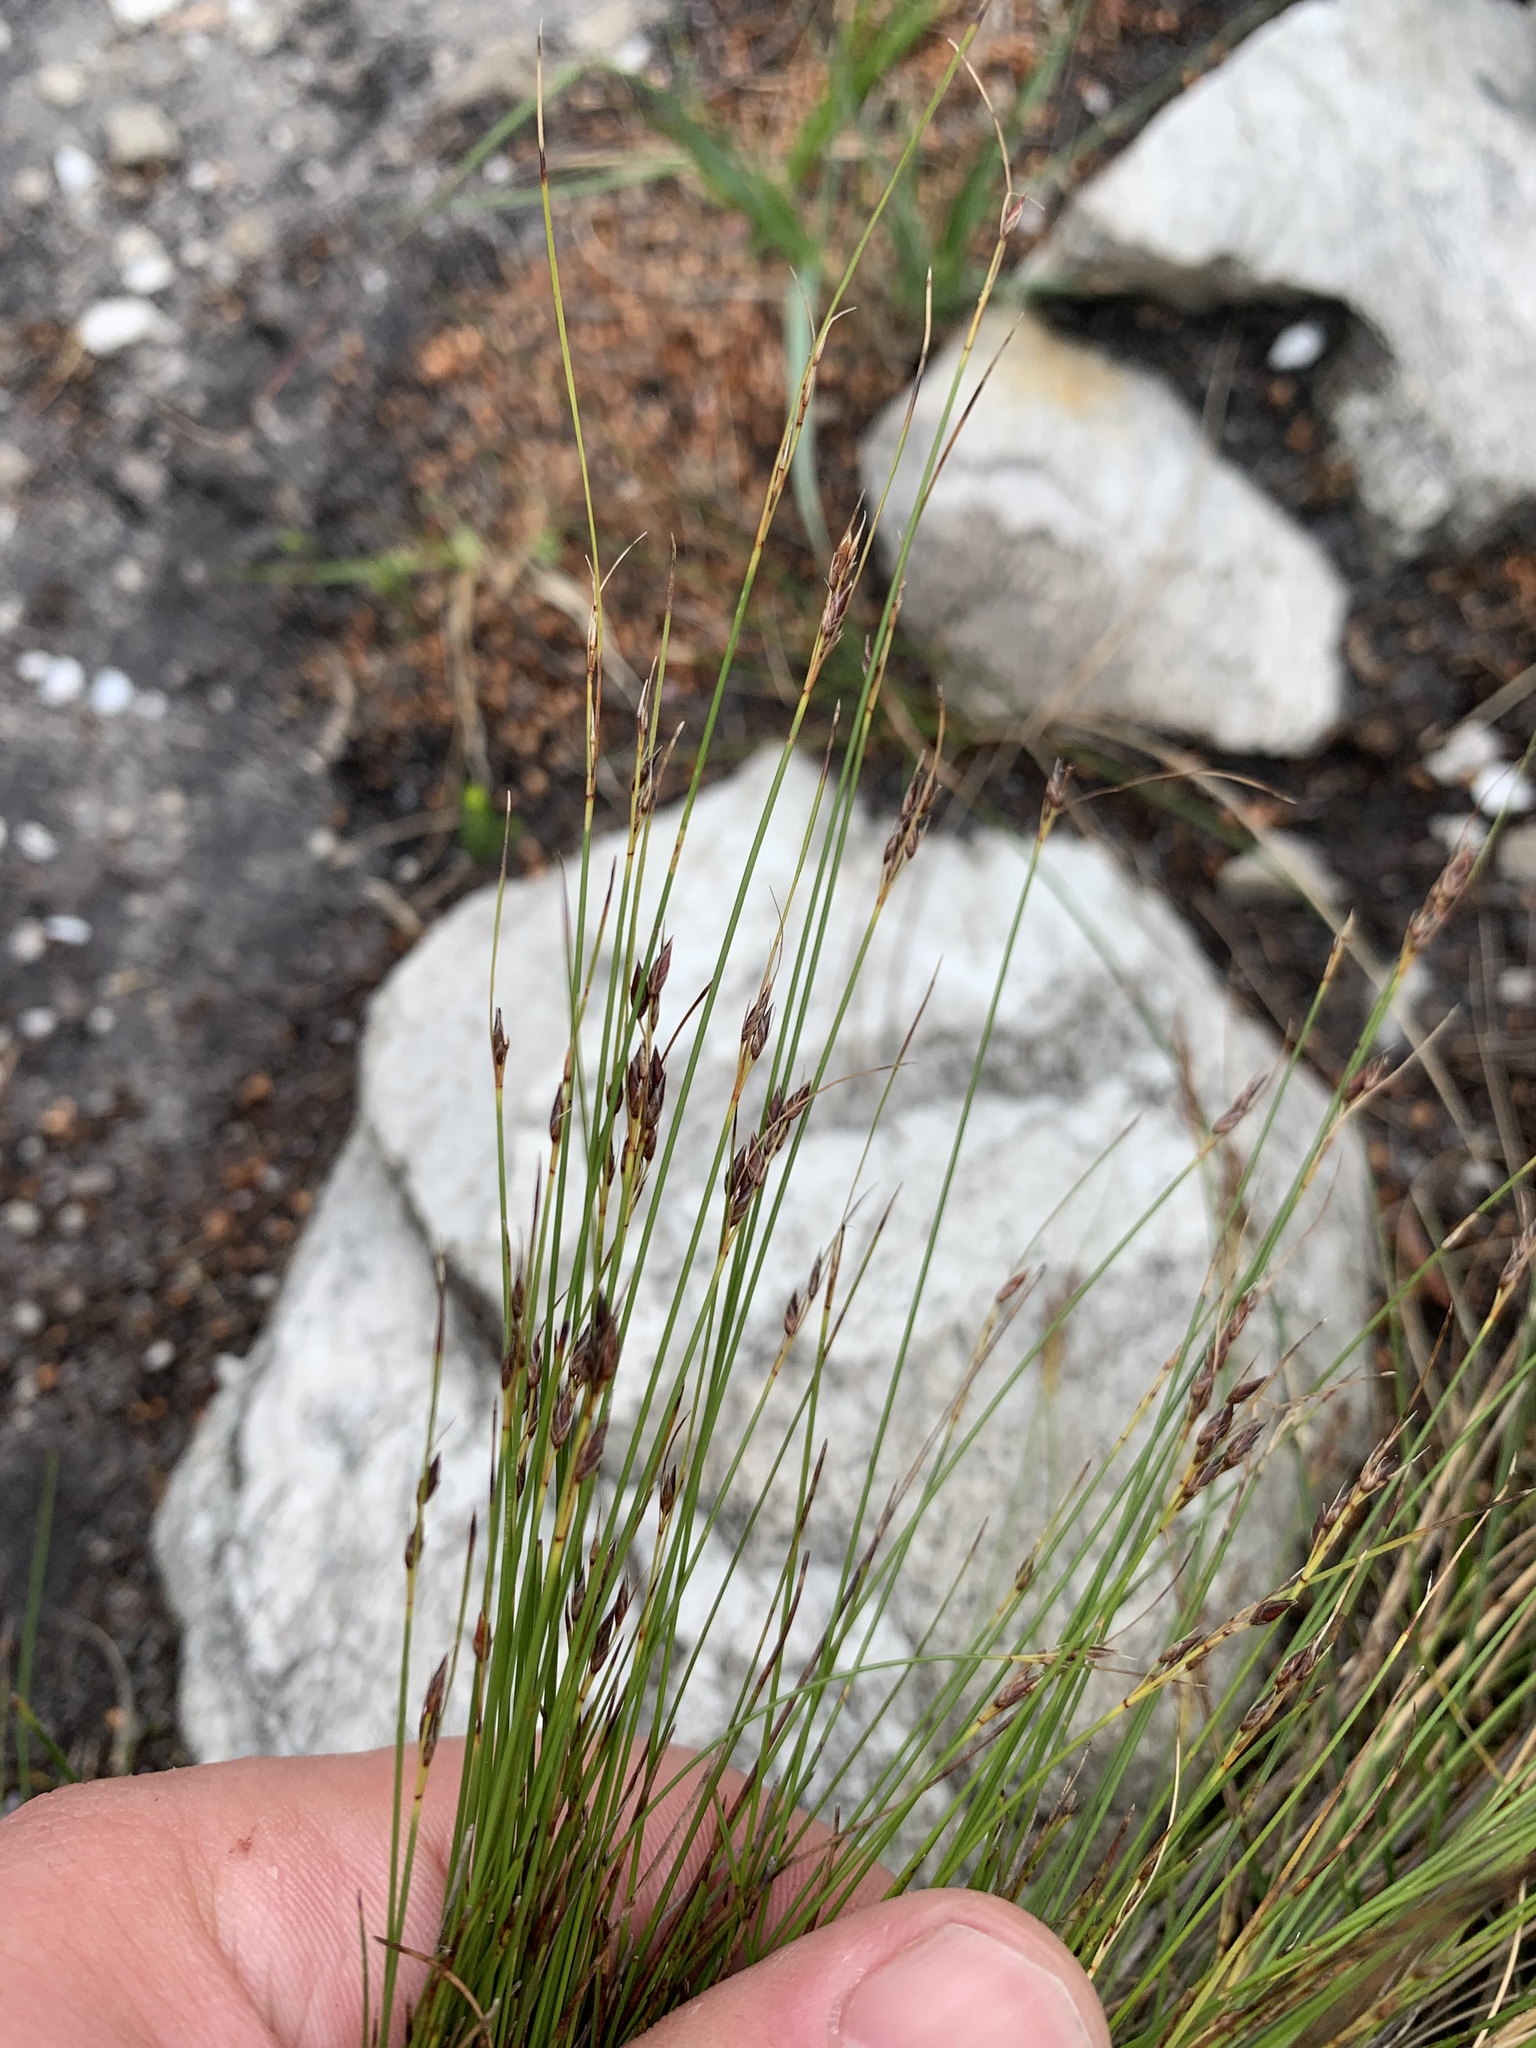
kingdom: Plantae
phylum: Tracheophyta
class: Liliopsida
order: Poales
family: Cyperaceae
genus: Schoenus
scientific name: Schoenus bolusii
